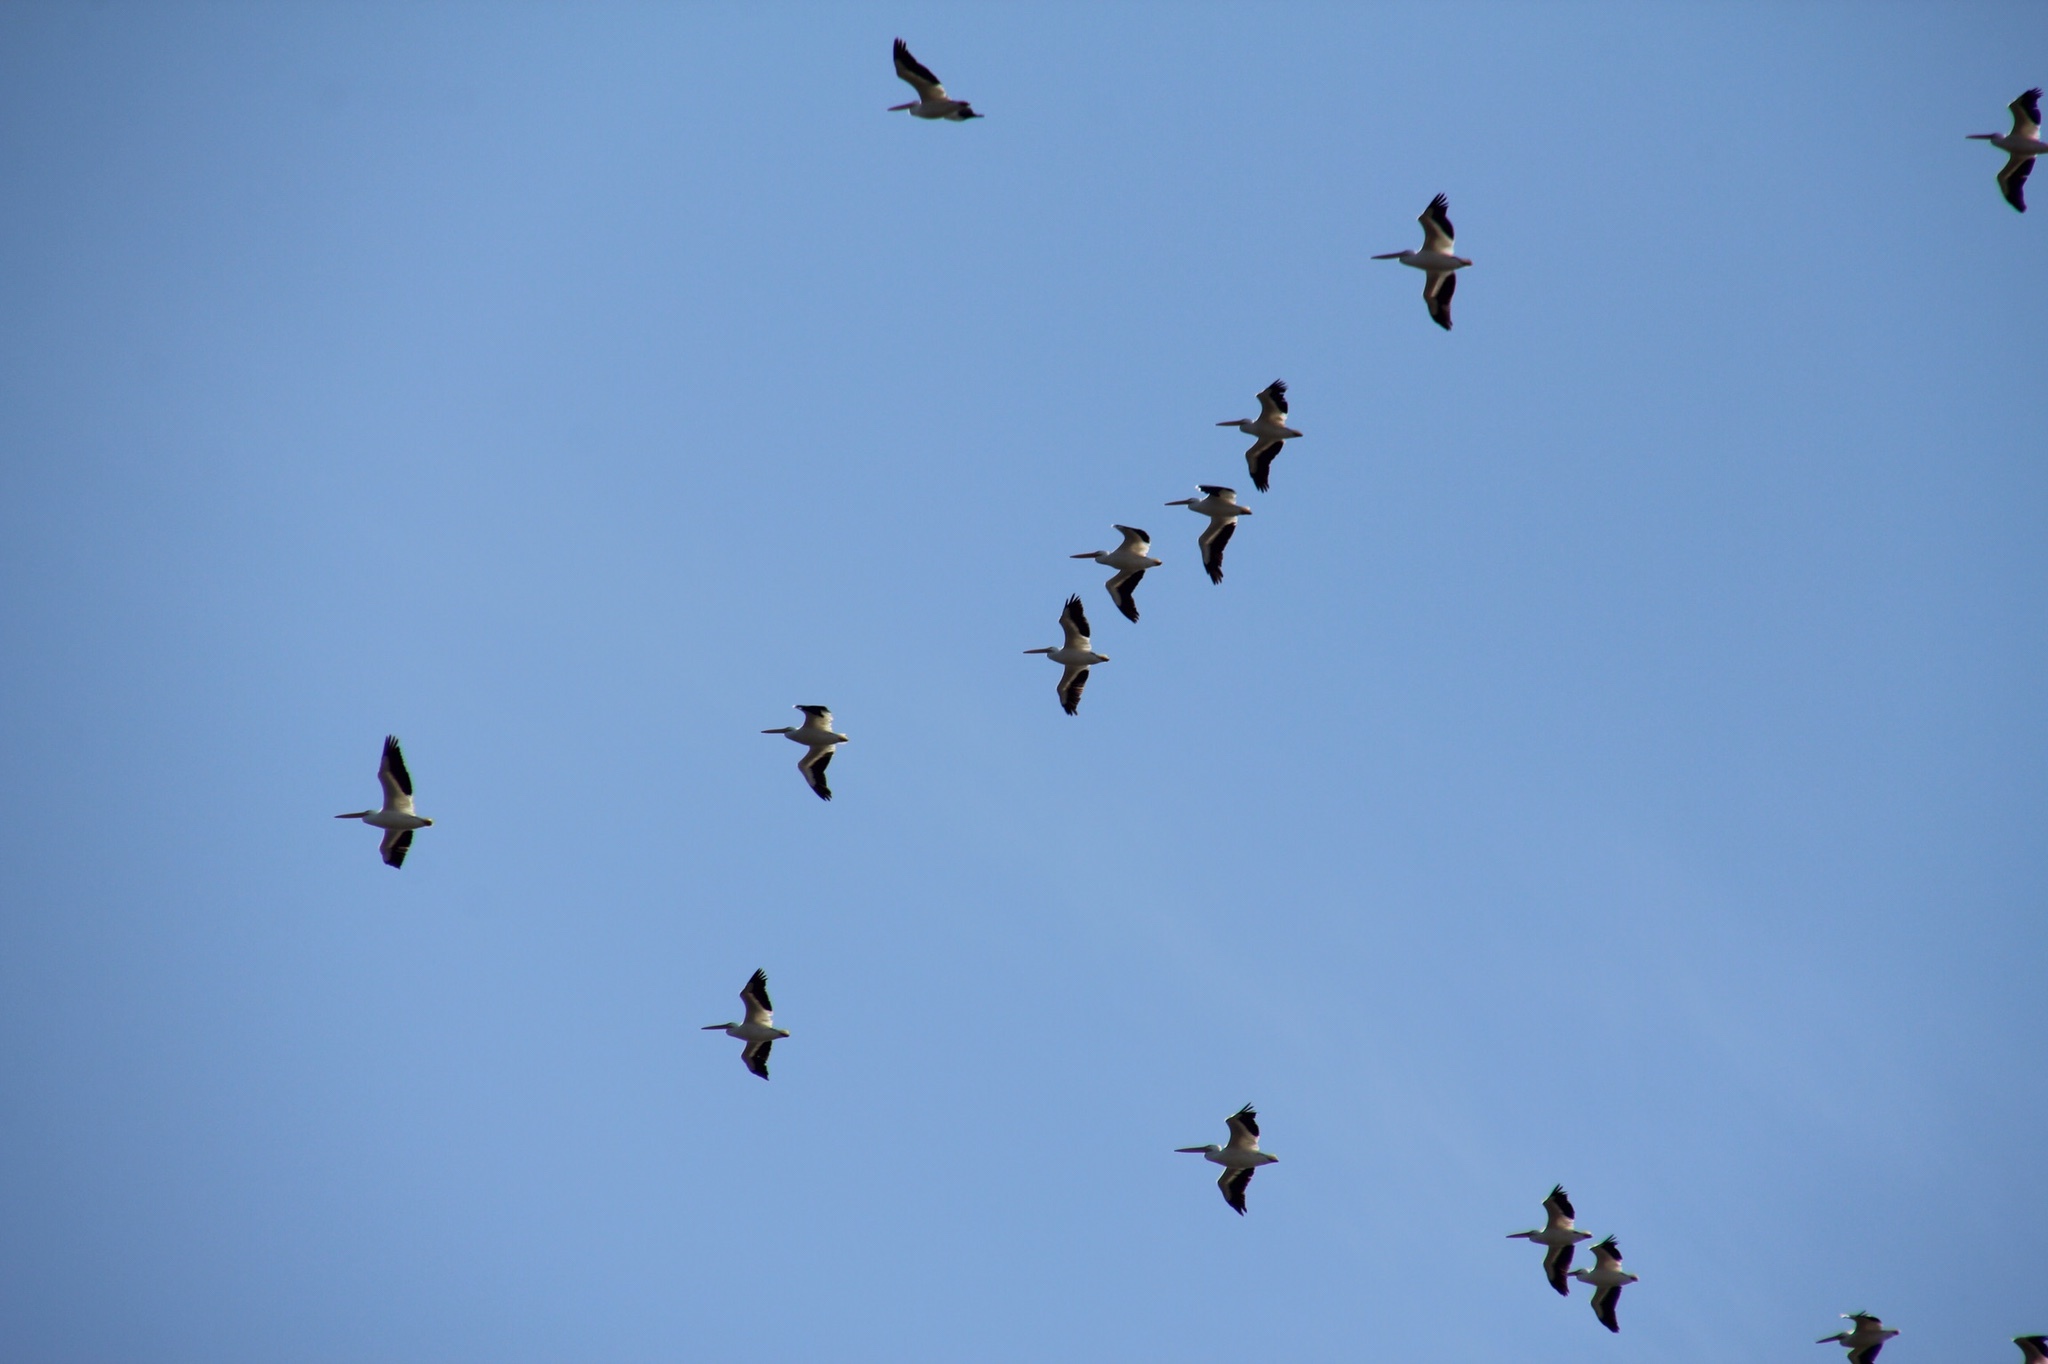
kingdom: Animalia
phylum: Chordata
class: Aves
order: Pelecaniformes
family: Pelecanidae
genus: Pelecanus
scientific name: Pelecanus erythrorhynchos
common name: American white pelican
